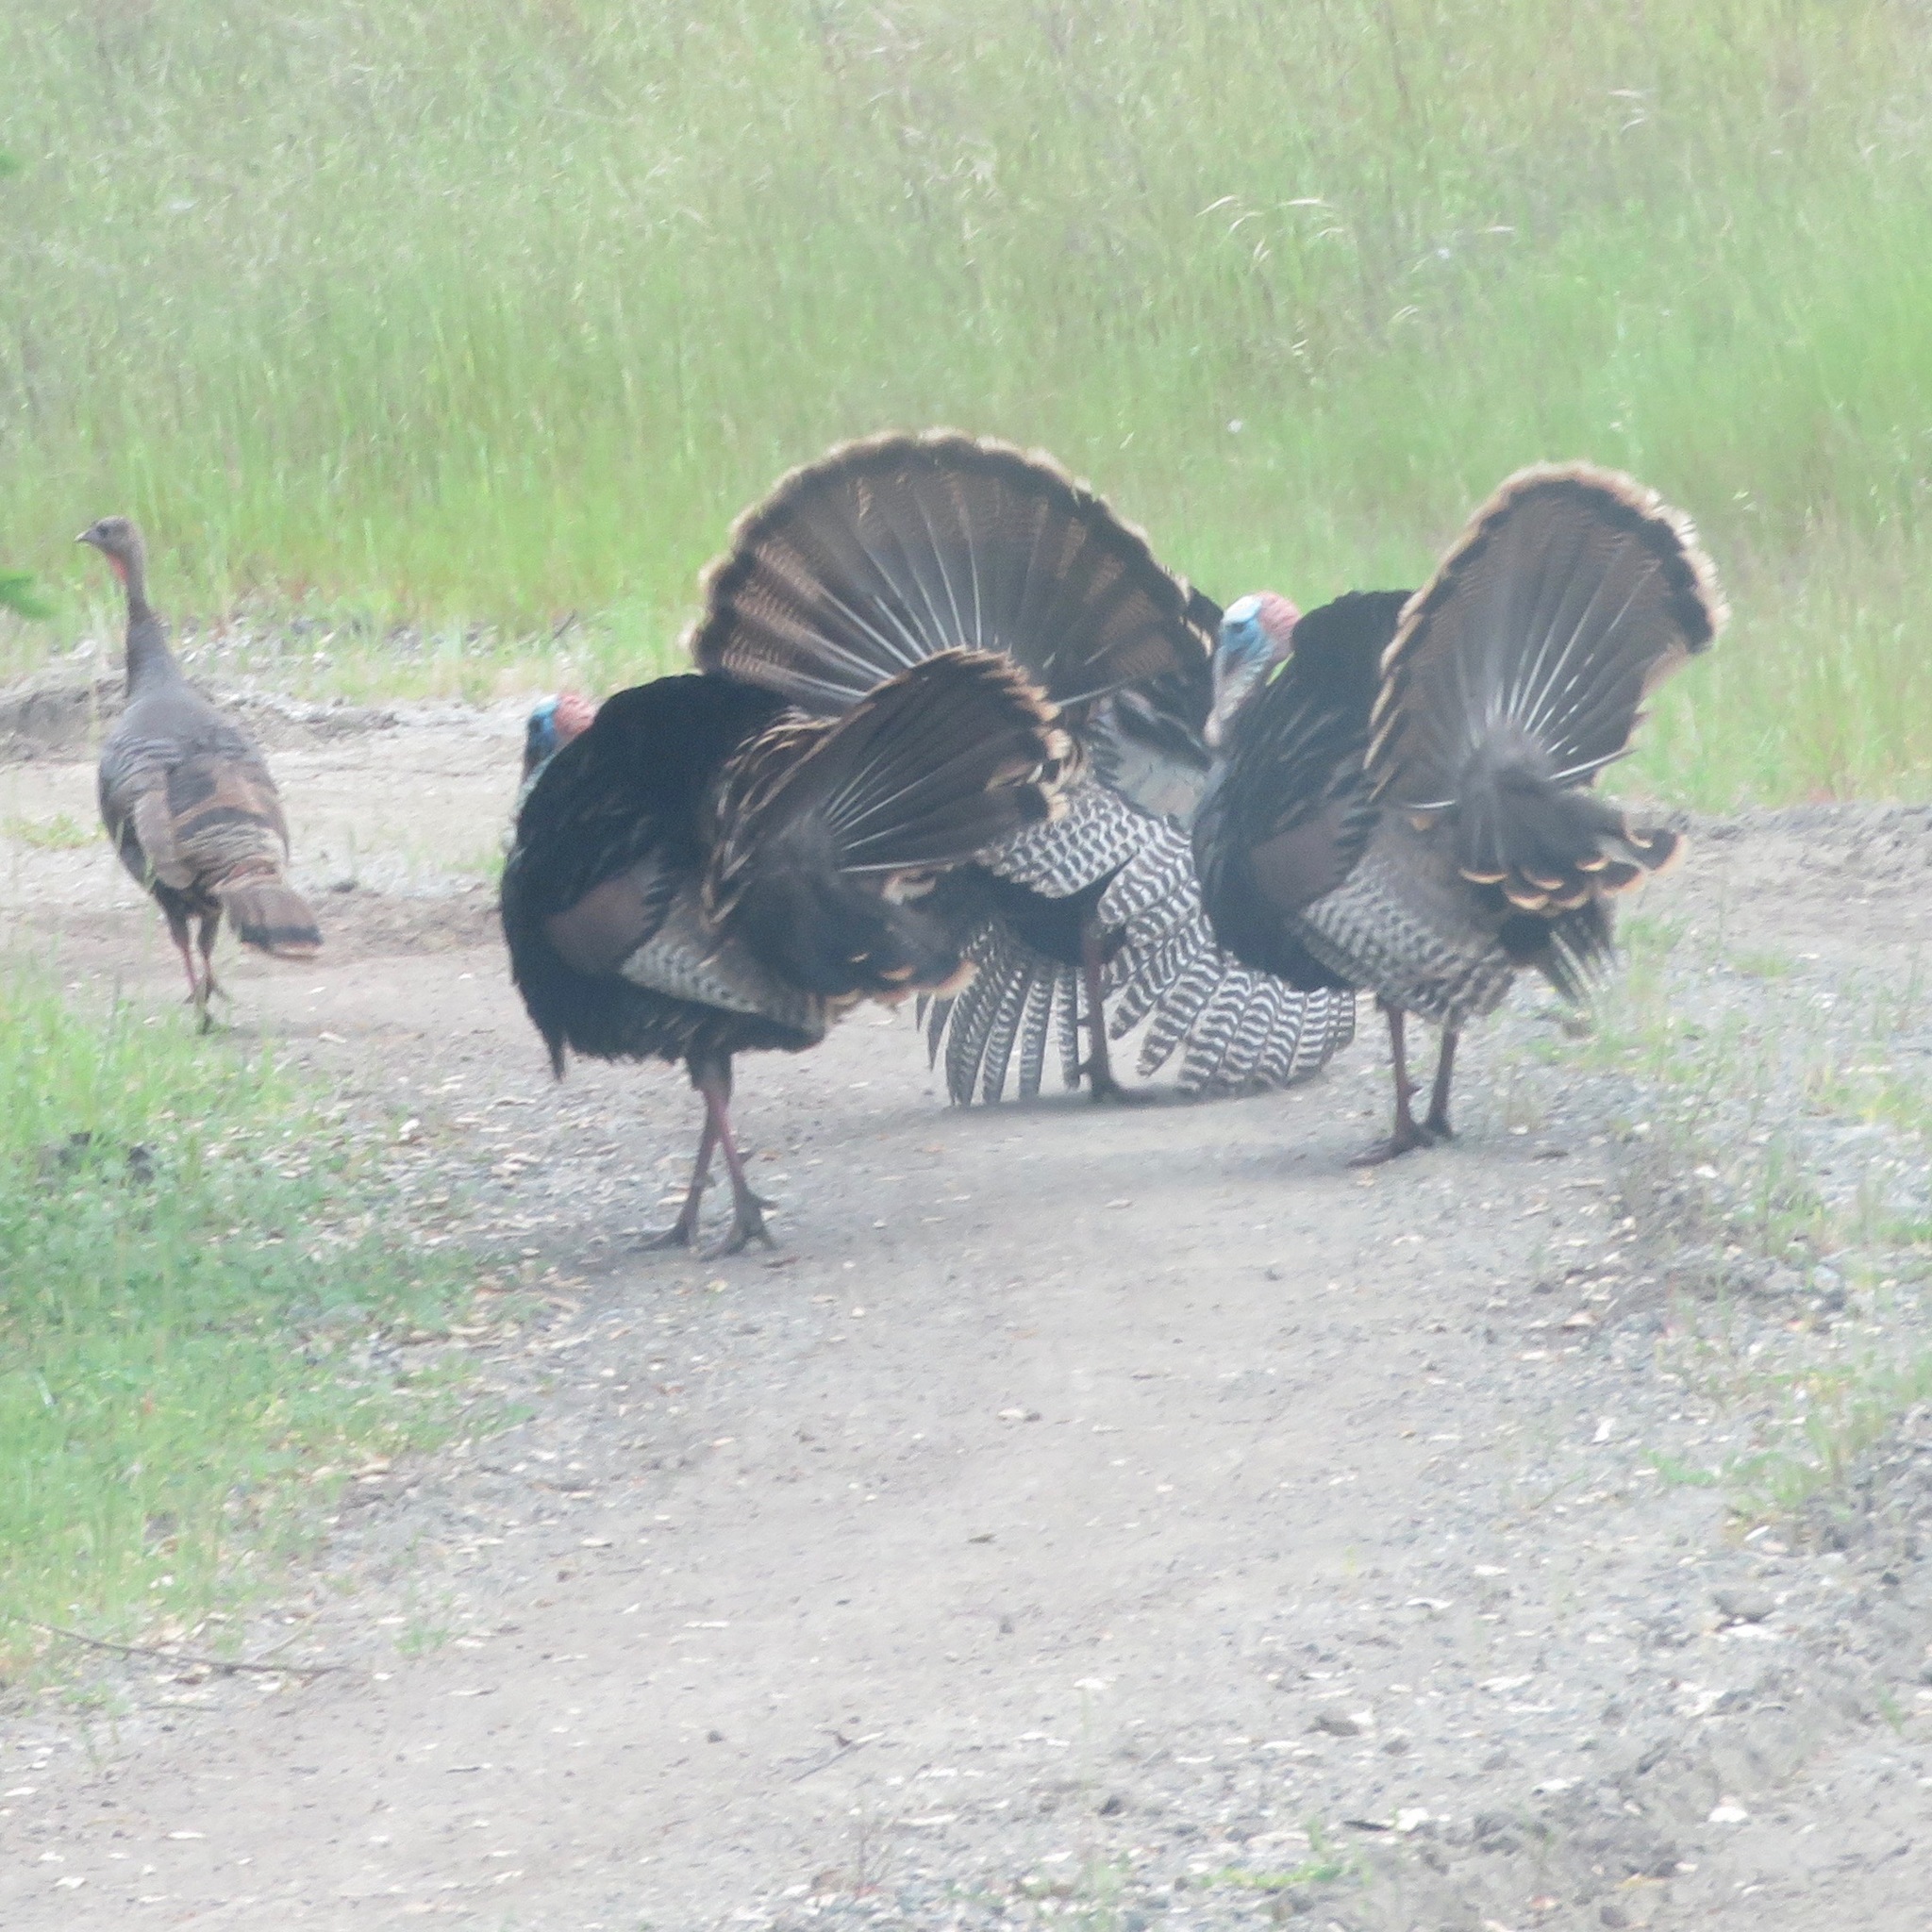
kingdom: Animalia
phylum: Chordata
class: Aves
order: Galliformes
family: Phasianidae
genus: Meleagris
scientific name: Meleagris gallopavo
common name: Wild turkey
